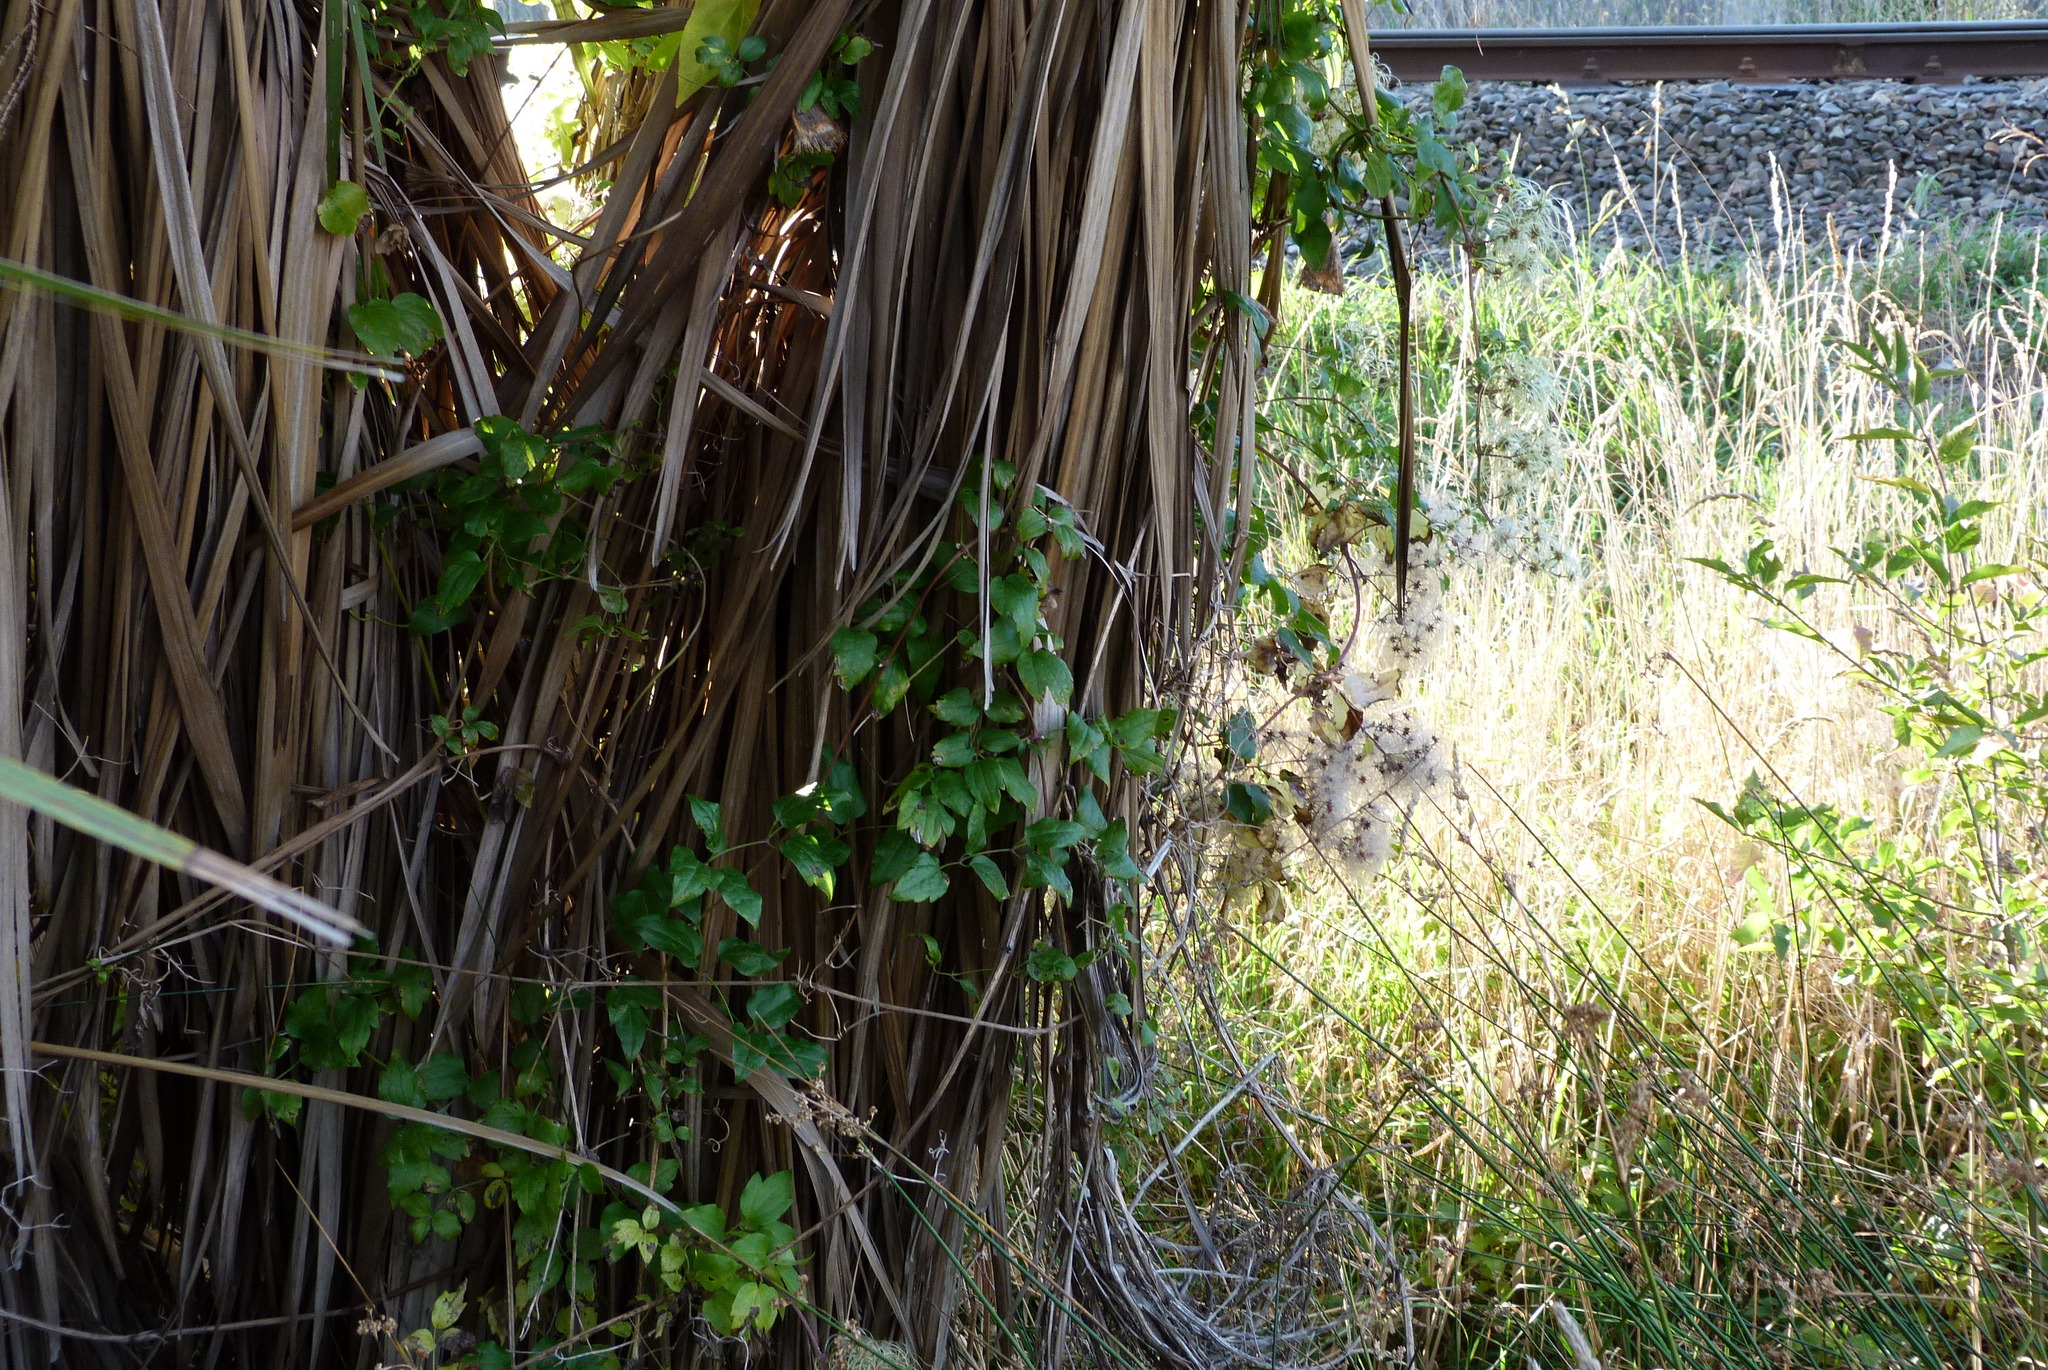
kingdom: Plantae
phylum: Tracheophyta
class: Magnoliopsida
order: Ranunculales
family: Ranunculaceae
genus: Clematis
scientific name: Clematis vitalba
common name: Evergreen clematis
